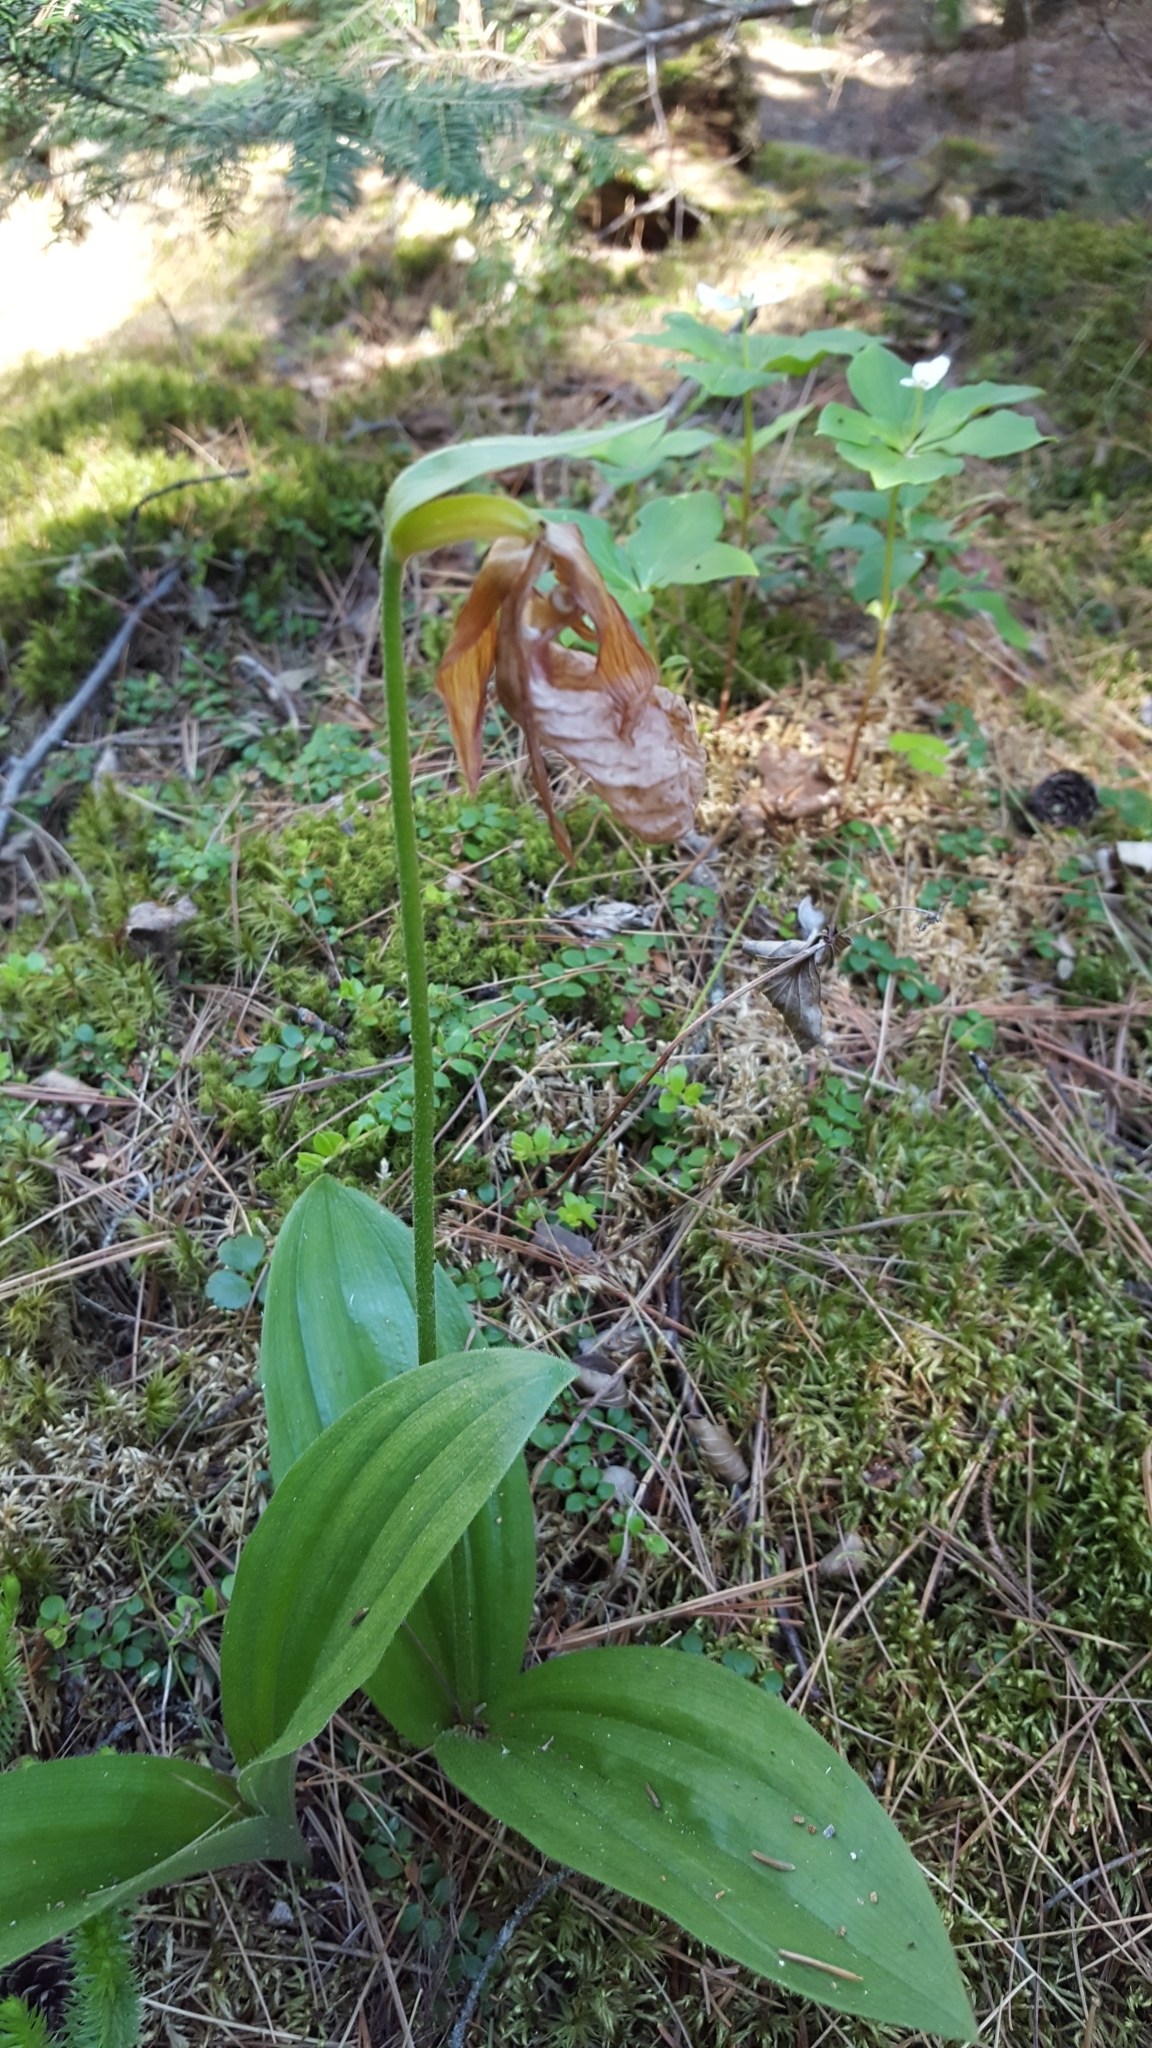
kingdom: Plantae
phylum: Tracheophyta
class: Liliopsida
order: Asparagales
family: Orchidaceae
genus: Cypripedium
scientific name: Cypripedium acaule
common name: Pink lady's-slipper
